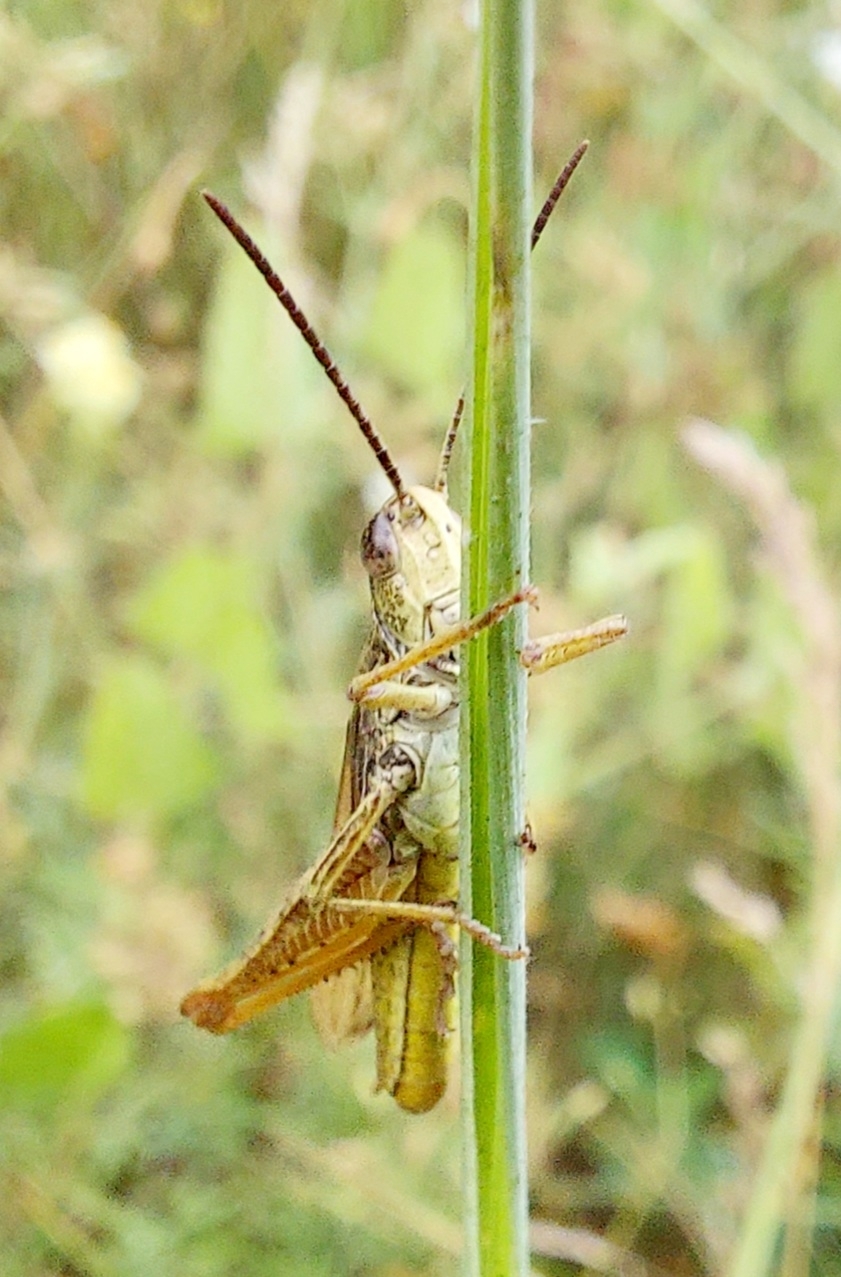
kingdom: Animalia
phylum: Arthropoda
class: Insecta
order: Orthoptera
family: Acrididae
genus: Chorthippus
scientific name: Chorthippus apricarius
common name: Upland field grasshopper
